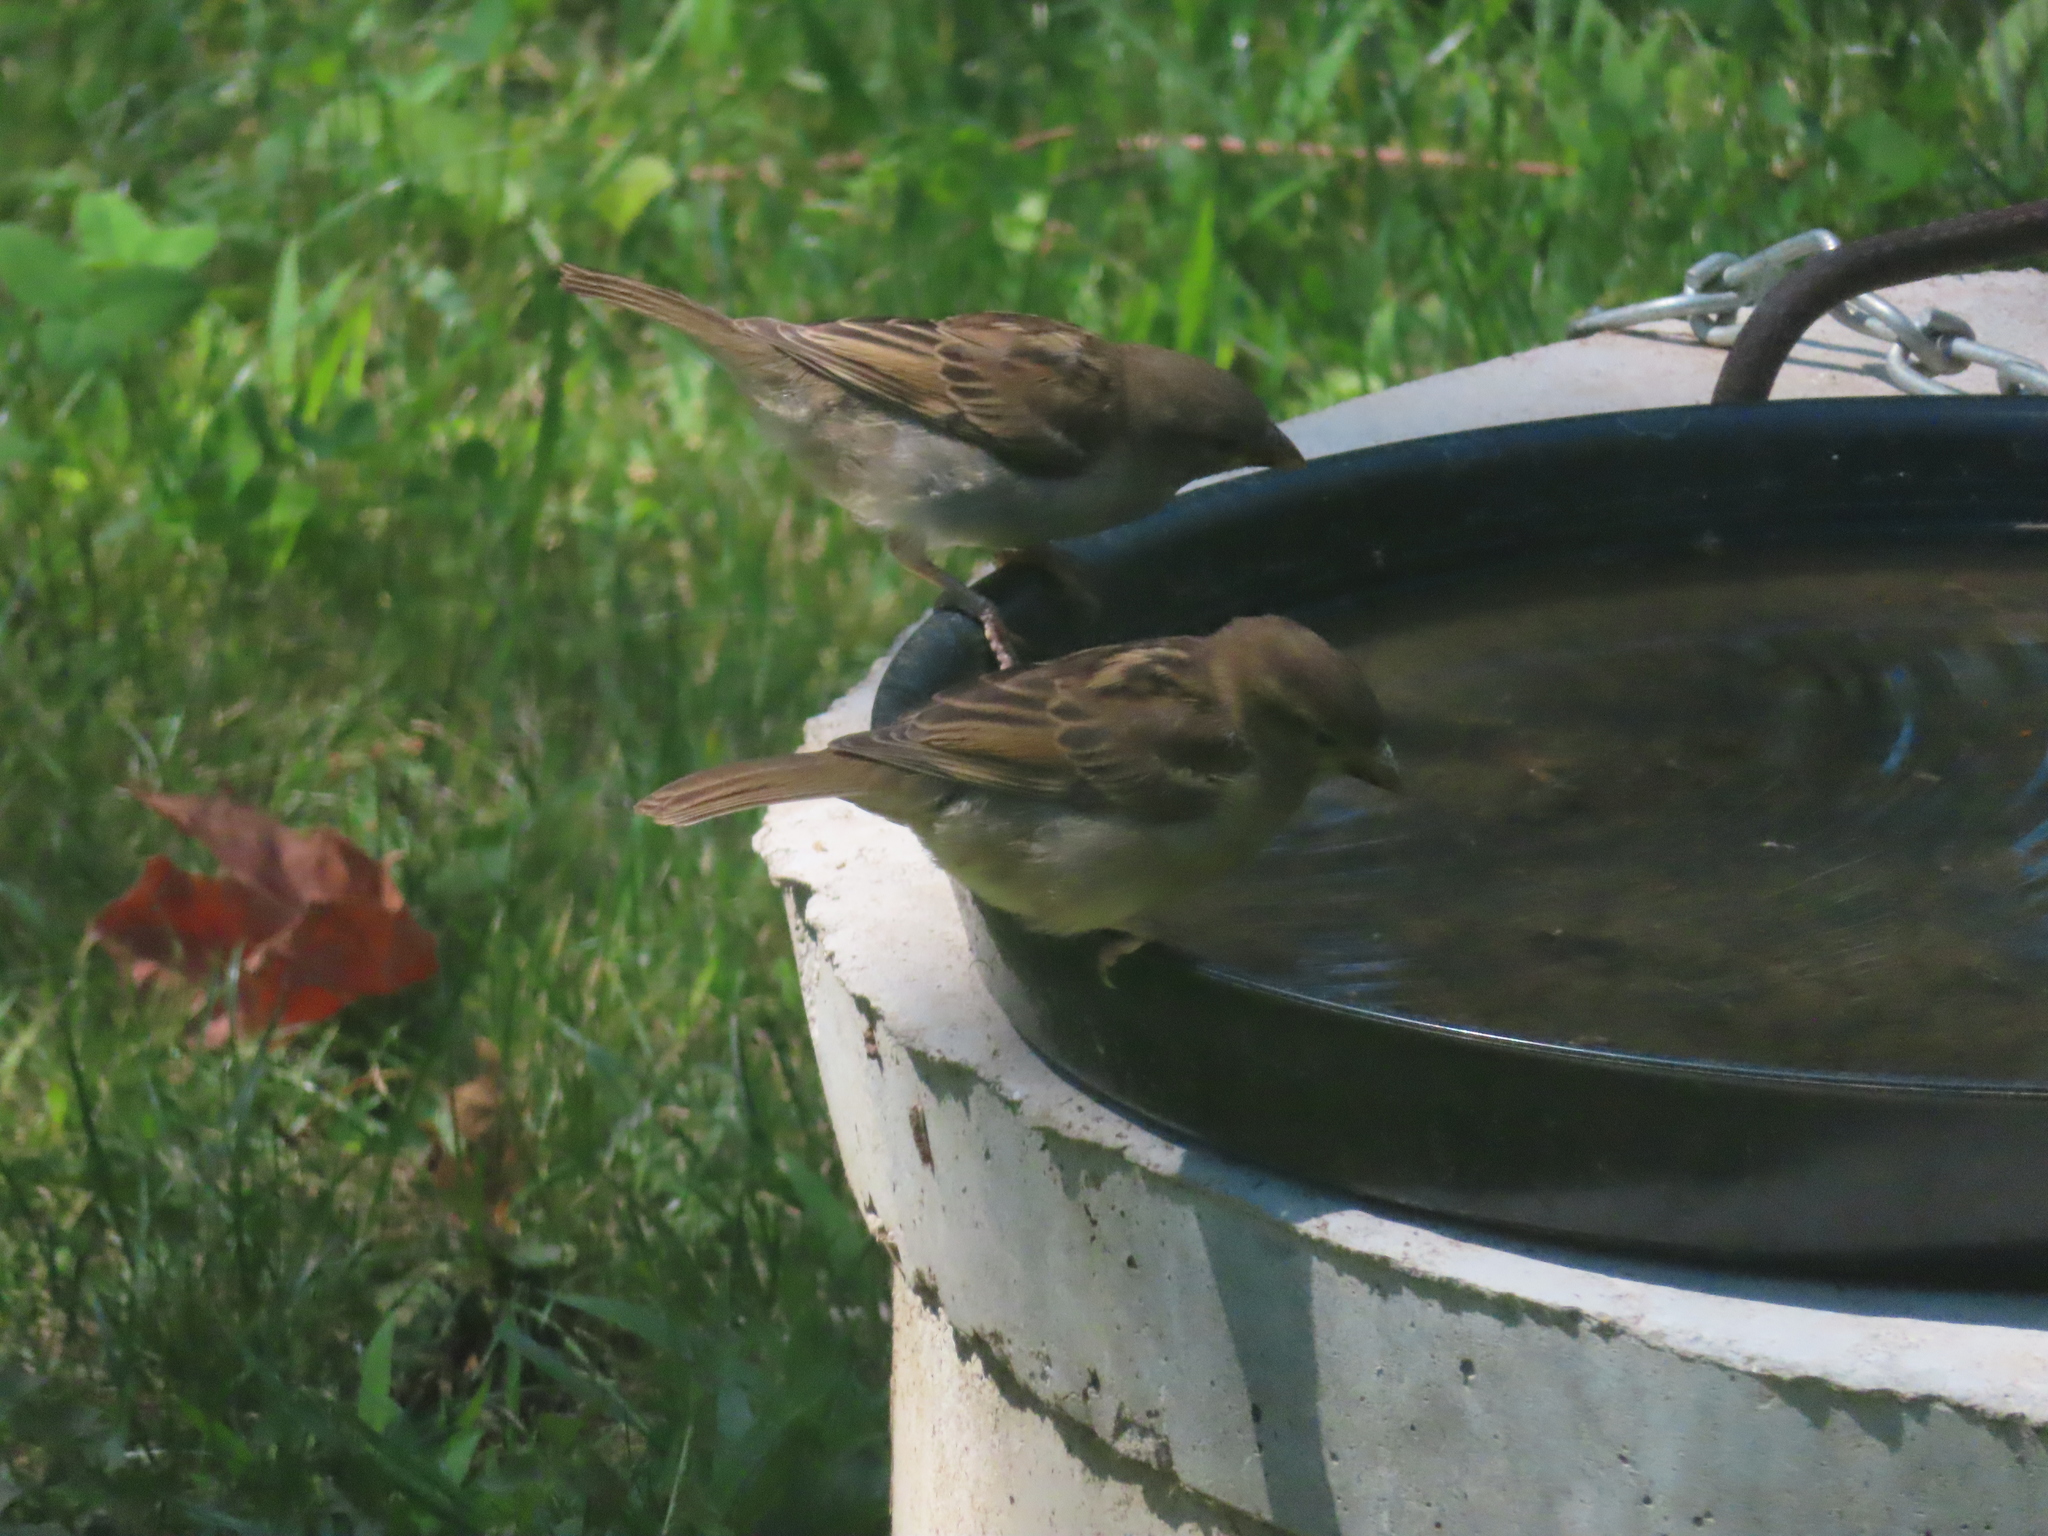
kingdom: Animalia
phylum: Chordata
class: Aves
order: Passeriformes
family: Passeridae
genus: Passer
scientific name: Passer domesticus
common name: House sparrow
